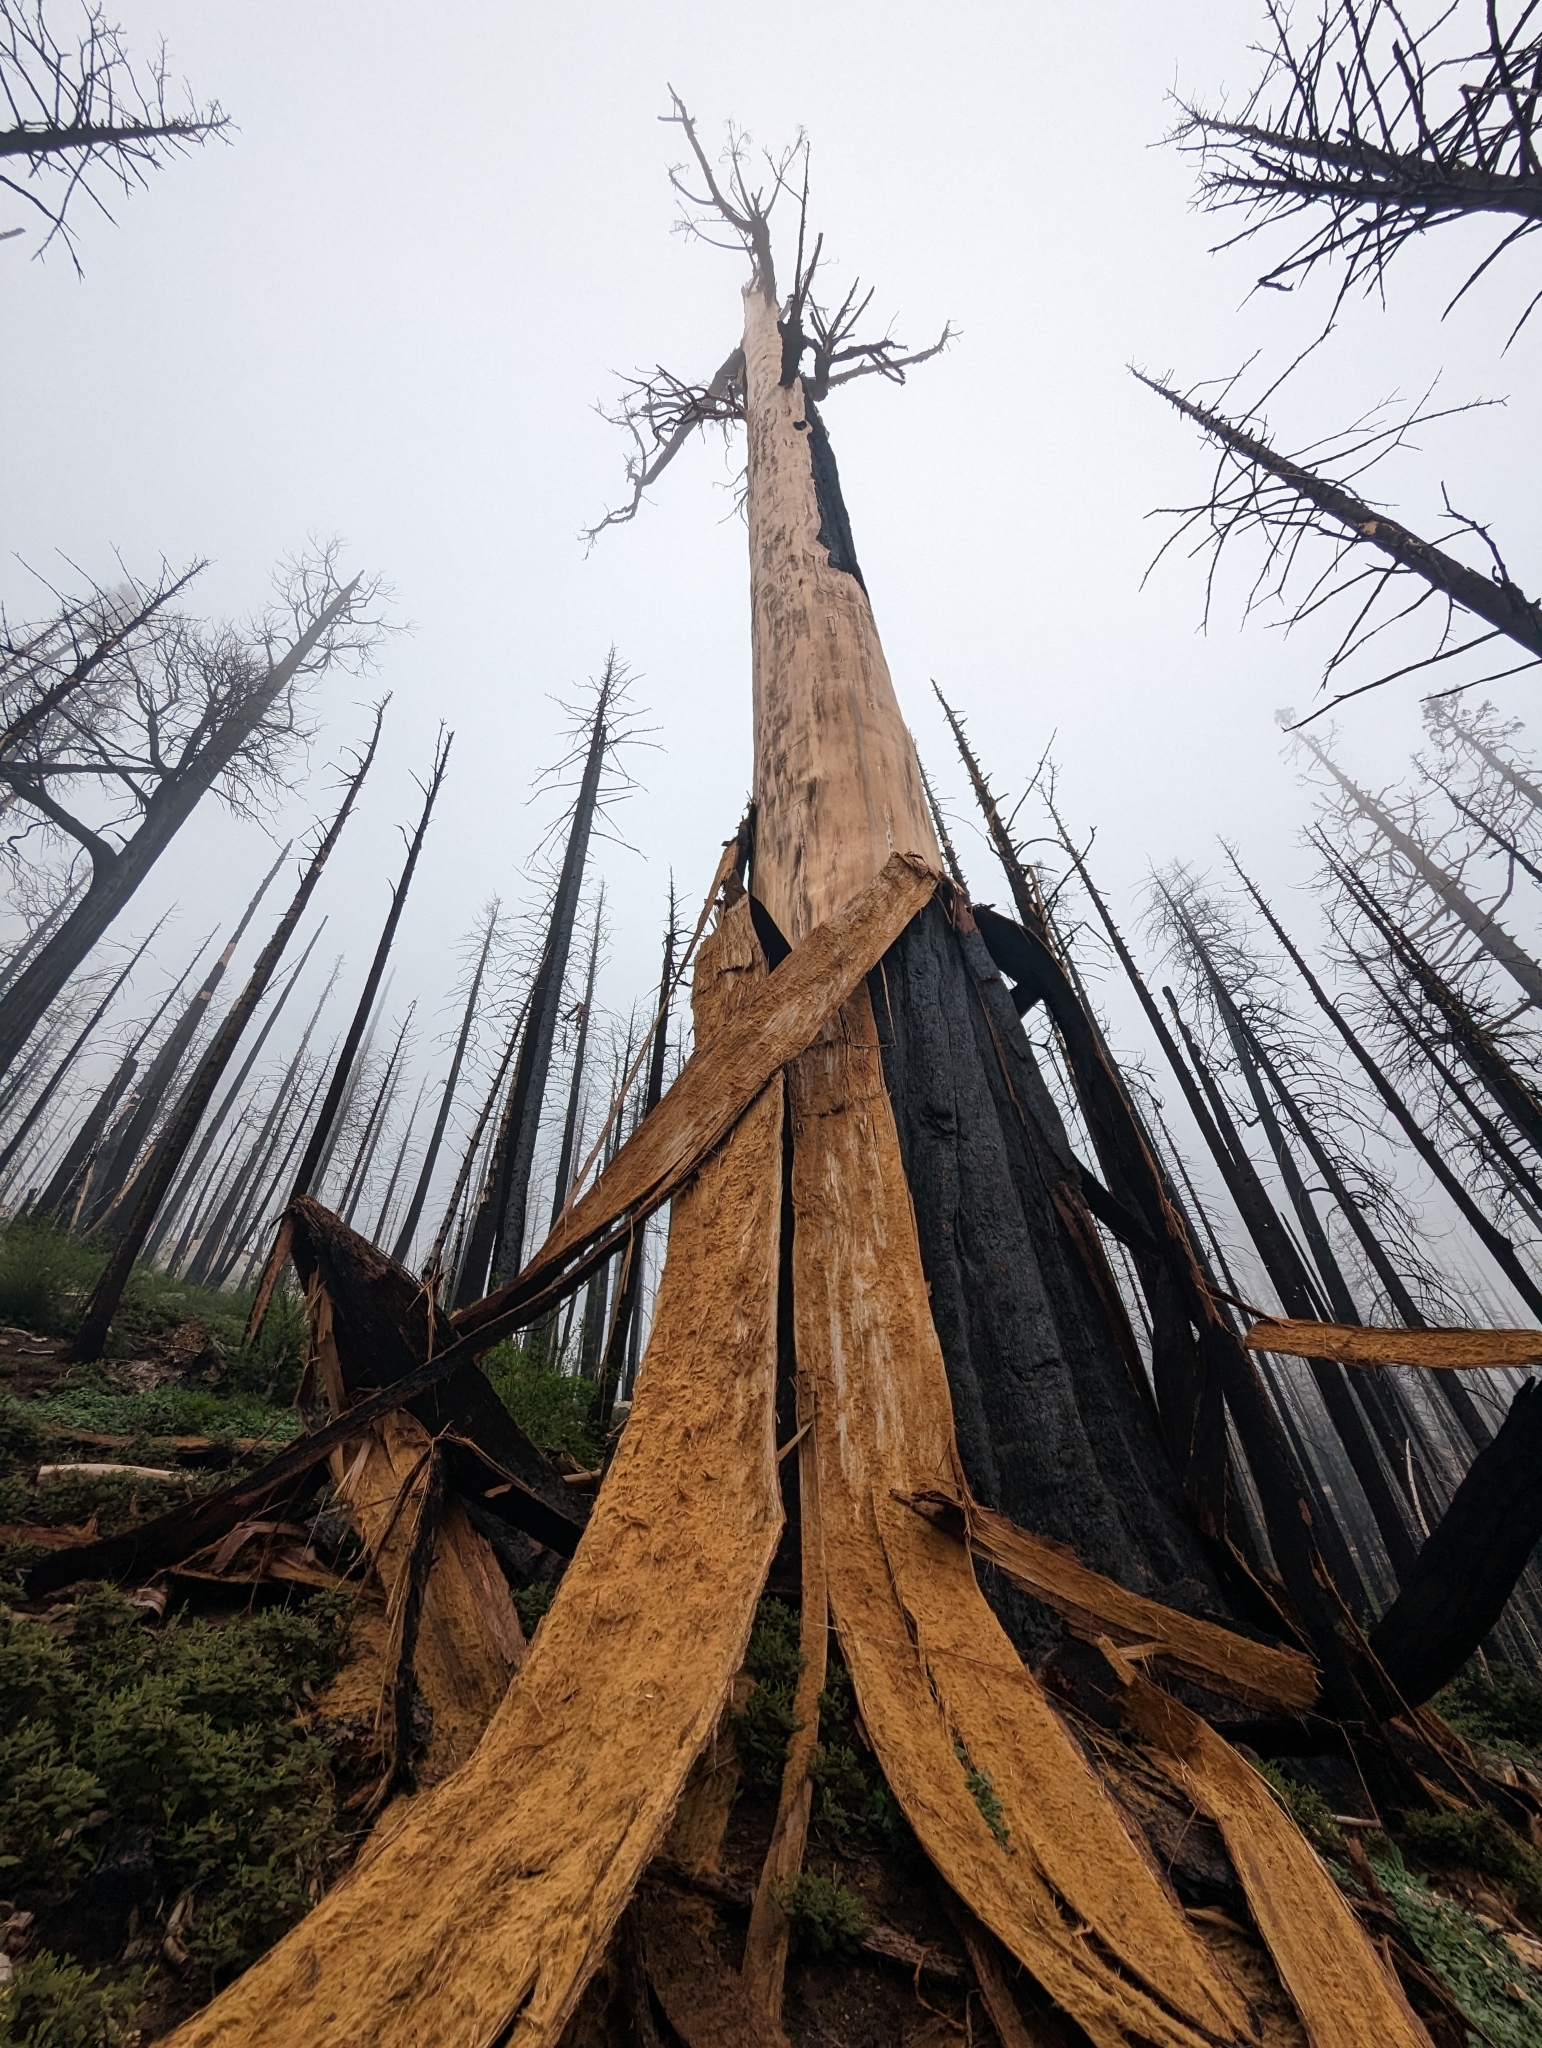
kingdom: Plantae
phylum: Tracheophyta
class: Pinopsida
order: Pinales
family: Cupressaceae
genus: Sequoiadendron
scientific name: Sequoiadendron giganteum
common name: Wellingtonia
